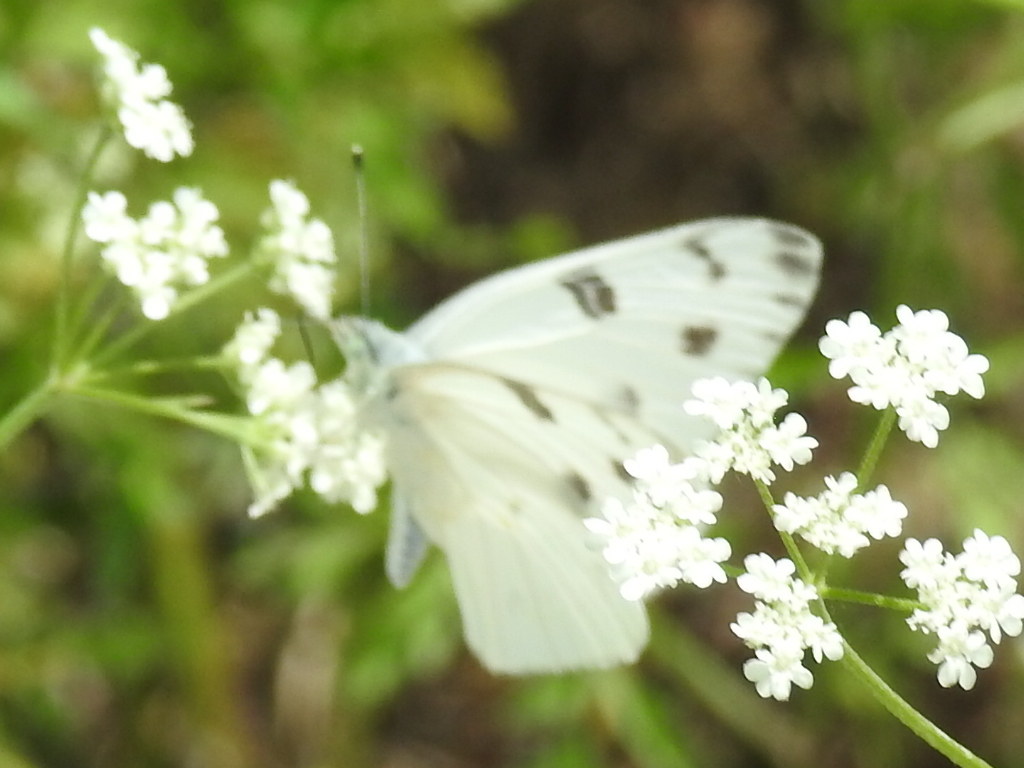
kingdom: Animalia
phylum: Arthropoda
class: Insecta
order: Lepidoptera
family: Pieridae
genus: Pontia
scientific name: Pontia protodice
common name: Checkered white
